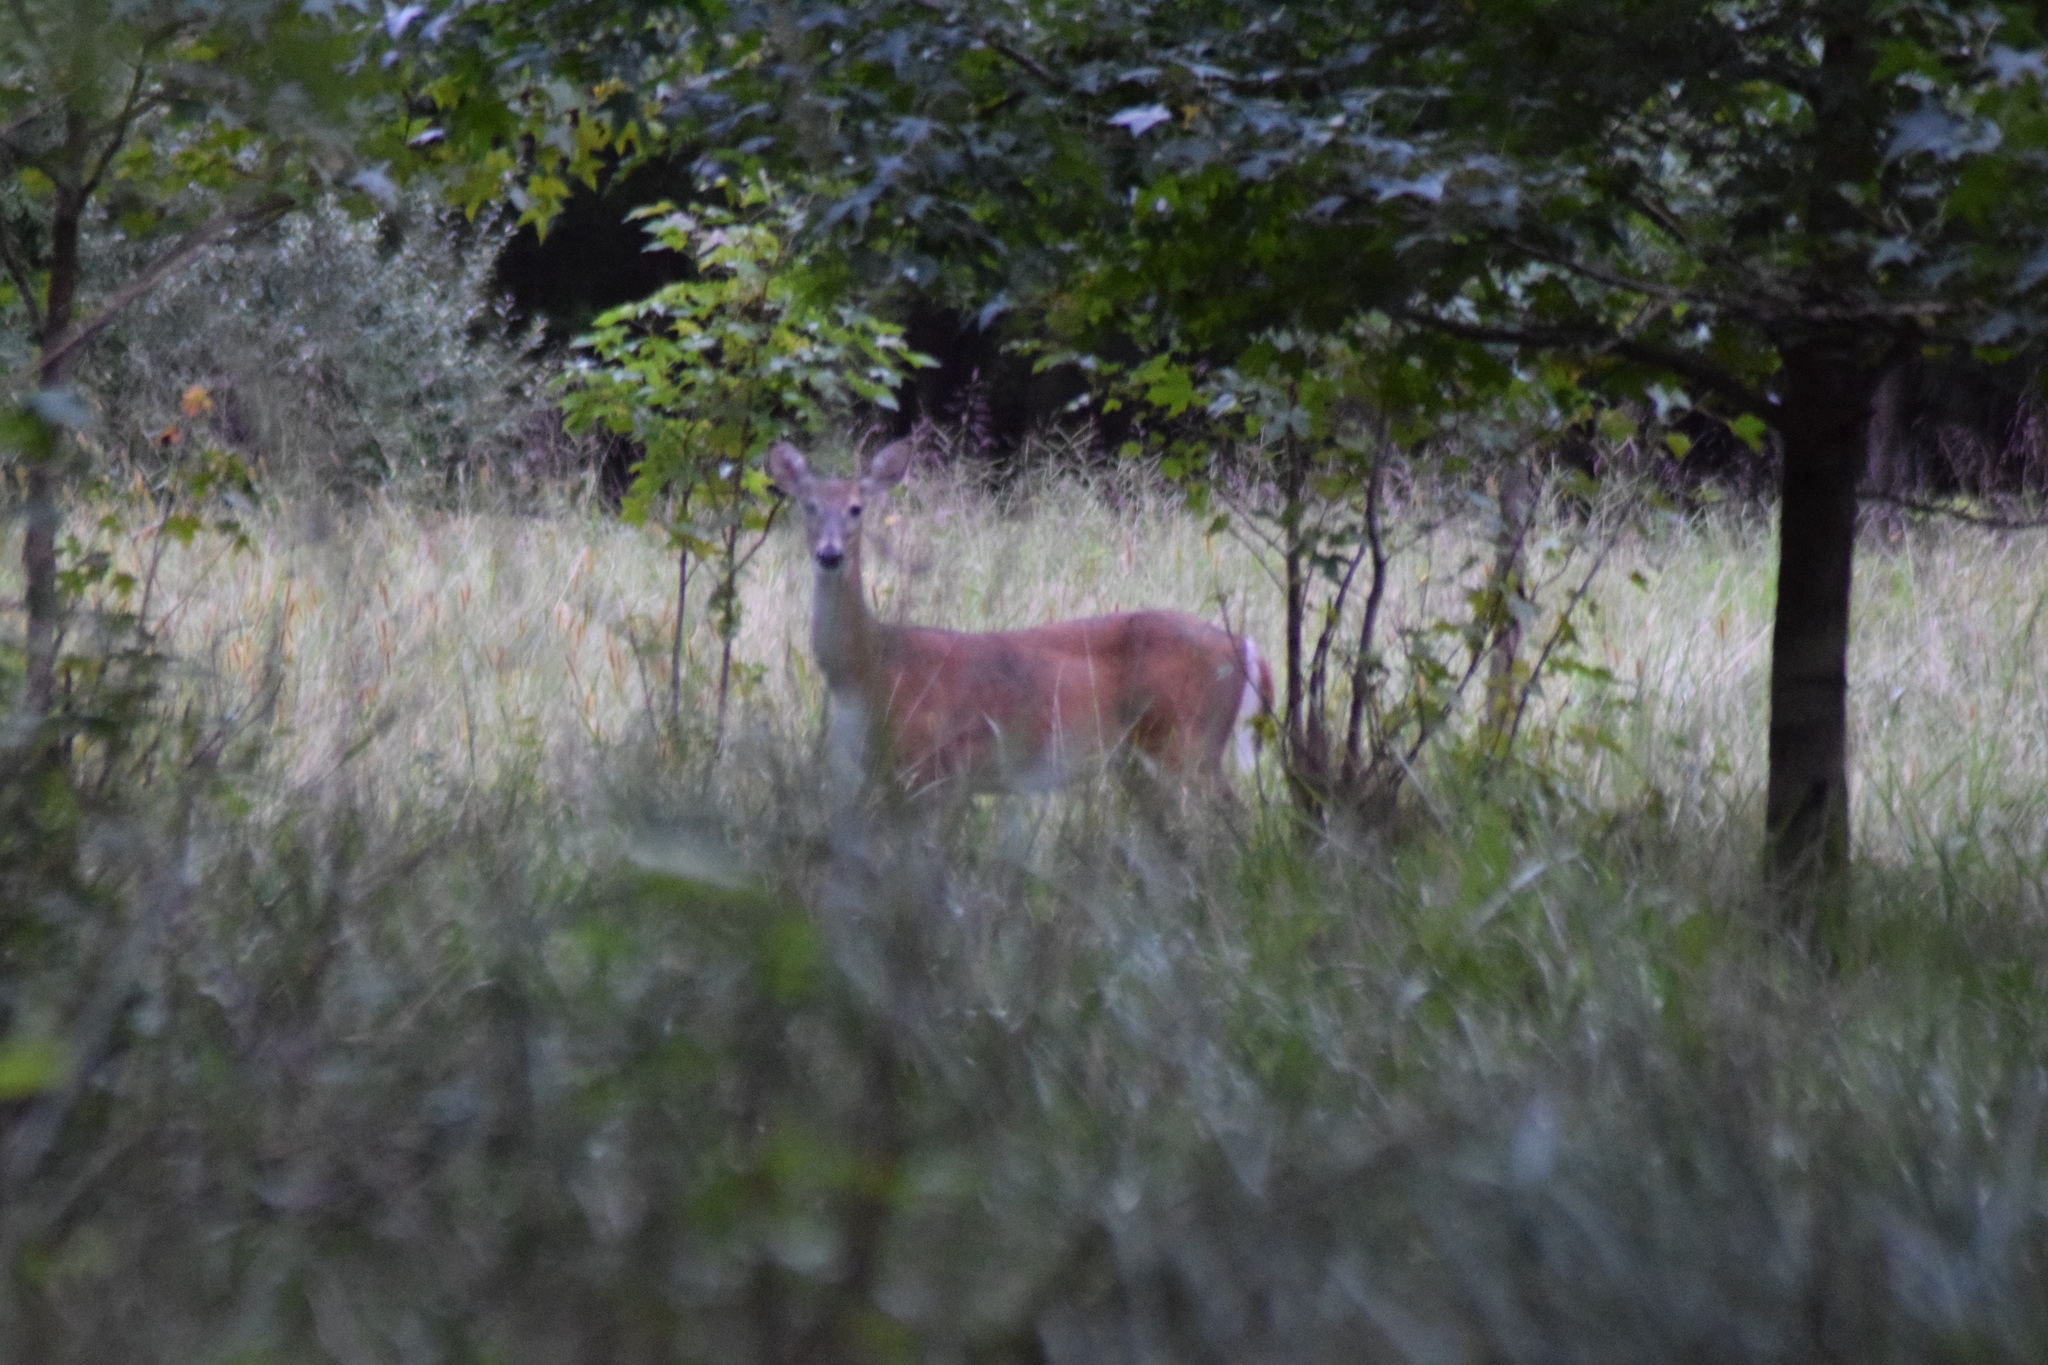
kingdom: Animalia
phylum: Chordata
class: Mammalia
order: Artiodactyla
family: Cervidae
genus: Odocoileus
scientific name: Odocoileus virginianus
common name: White-tailed deer
